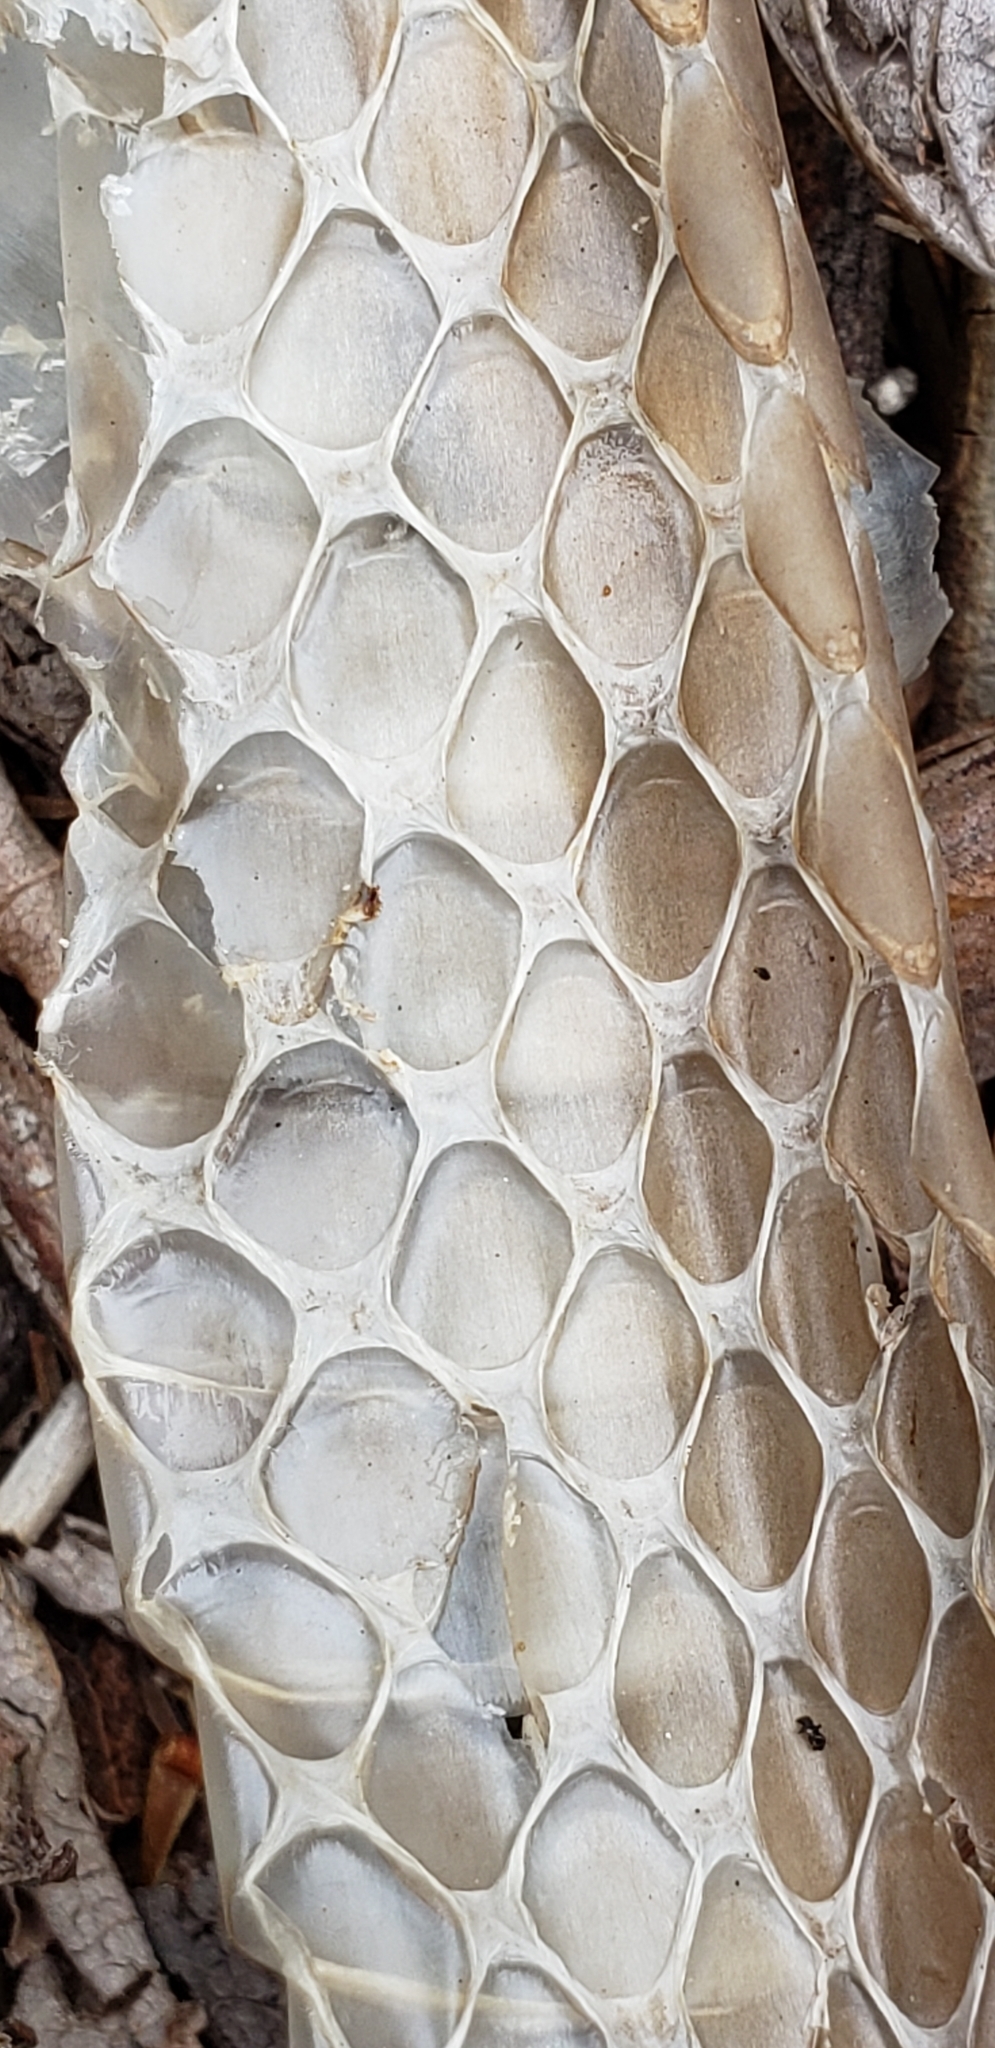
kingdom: Animalia
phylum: Chordata
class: Squamata
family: Colubridae
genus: Coluber
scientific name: Coluber constrictor
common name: Eastern racer
